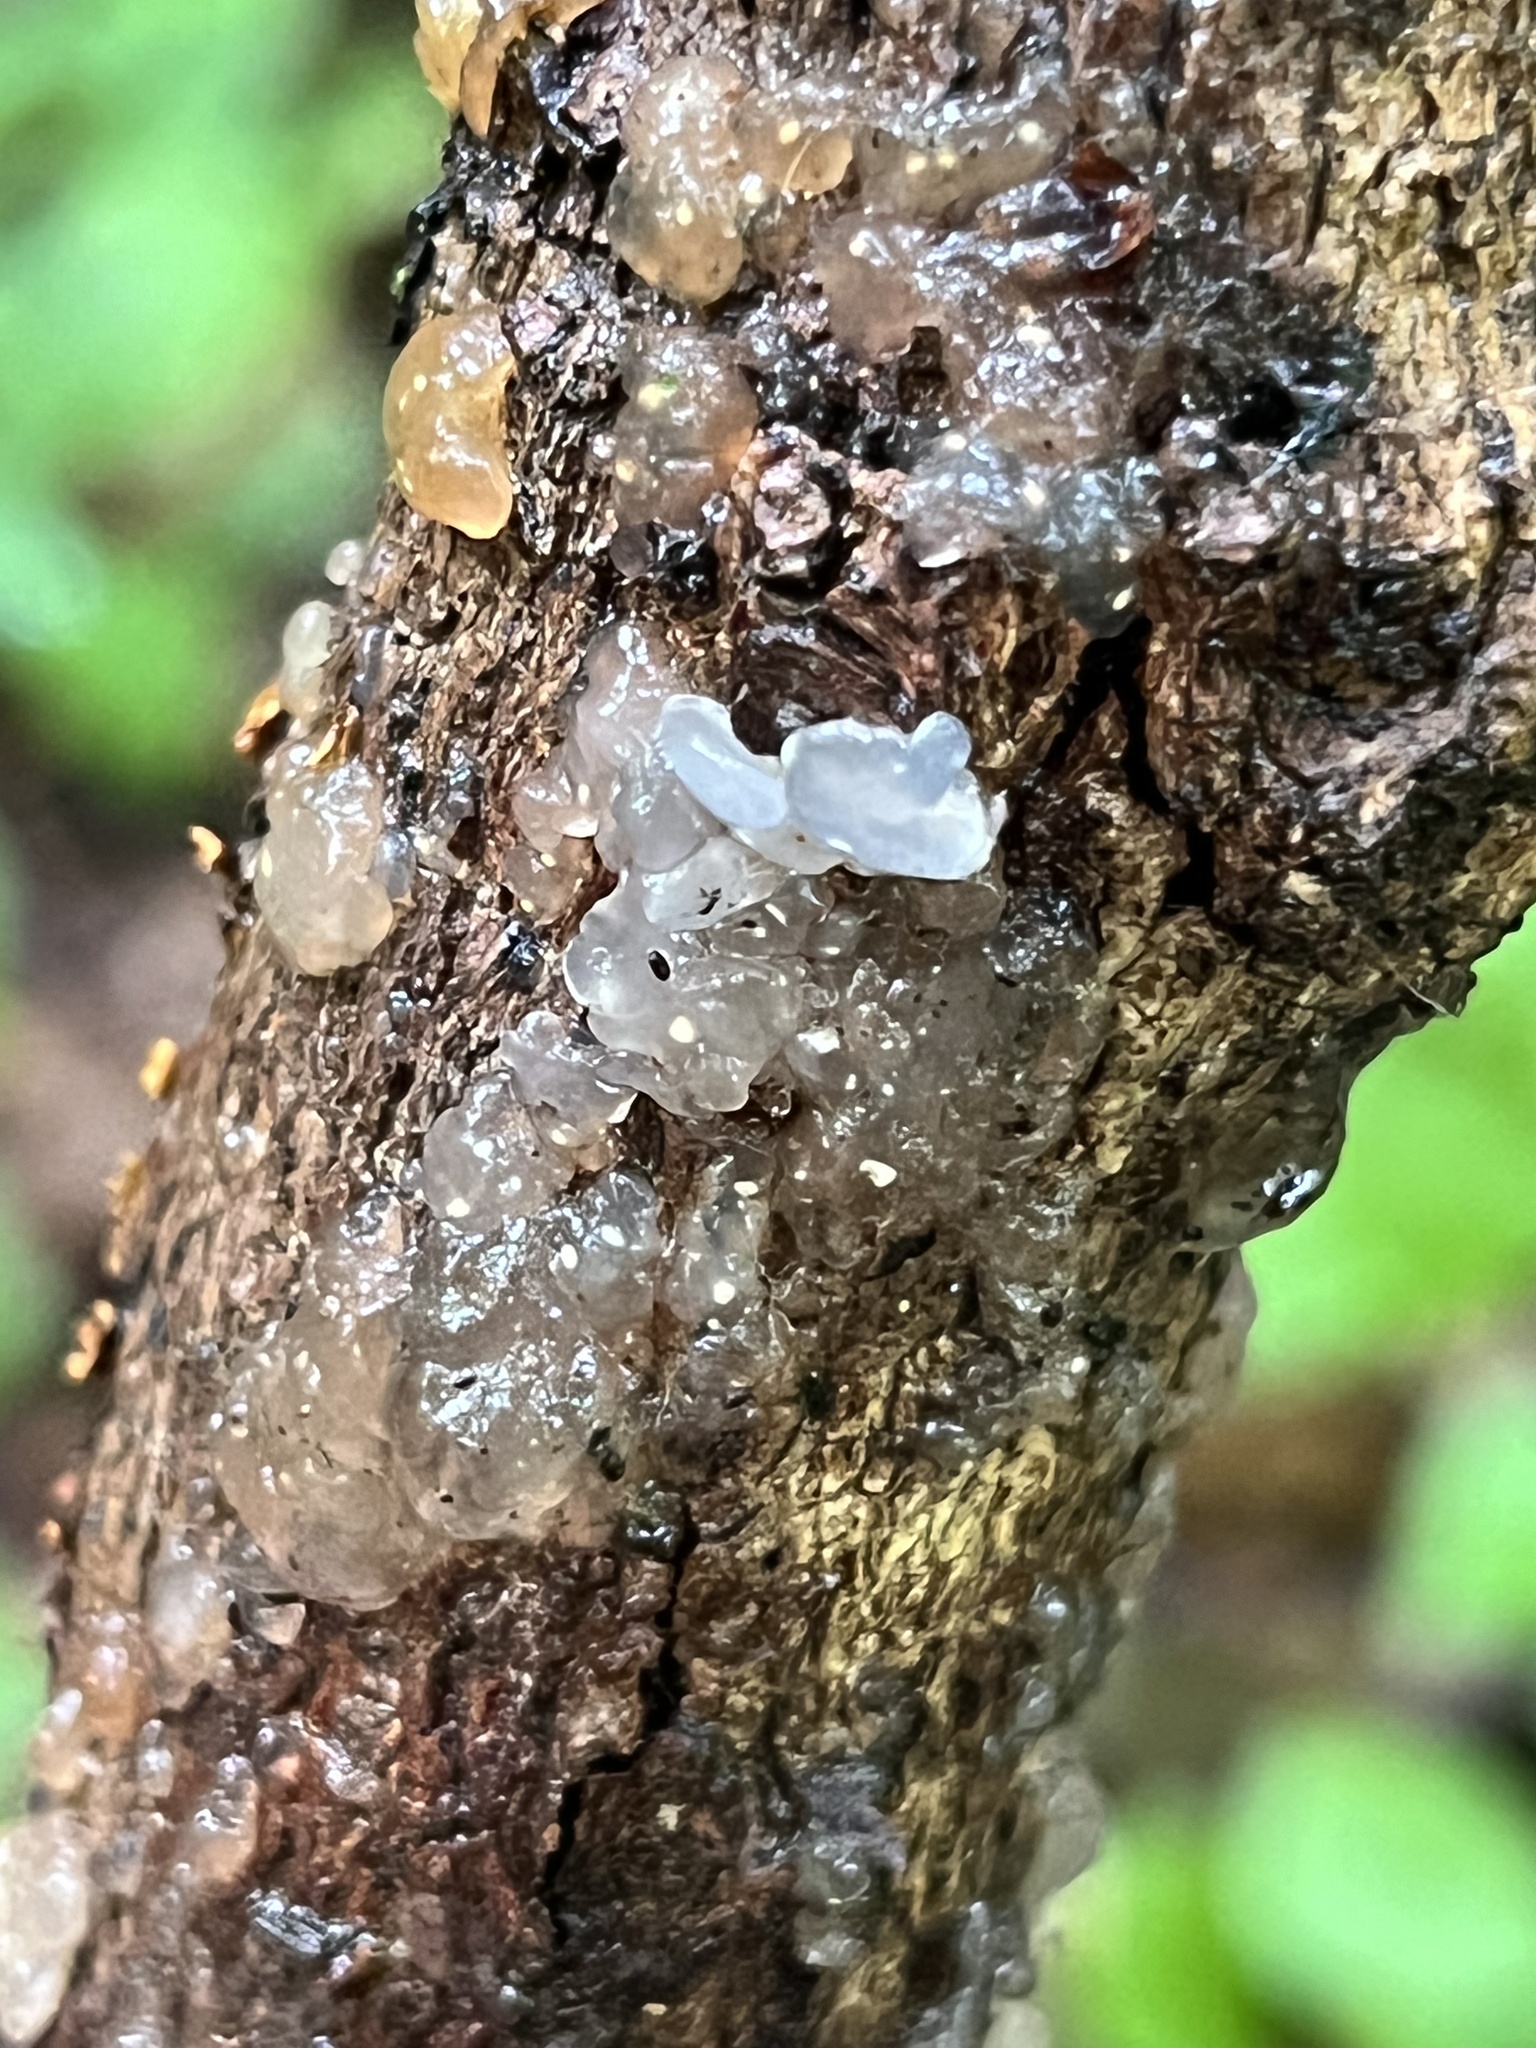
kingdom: Fungi
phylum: Basidiomycota
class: Agaricomycetes
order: Auriculariales
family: Hyaloriaceae
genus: Myxarium
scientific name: Myxarium nucleatum
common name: Crystal brain fungus
